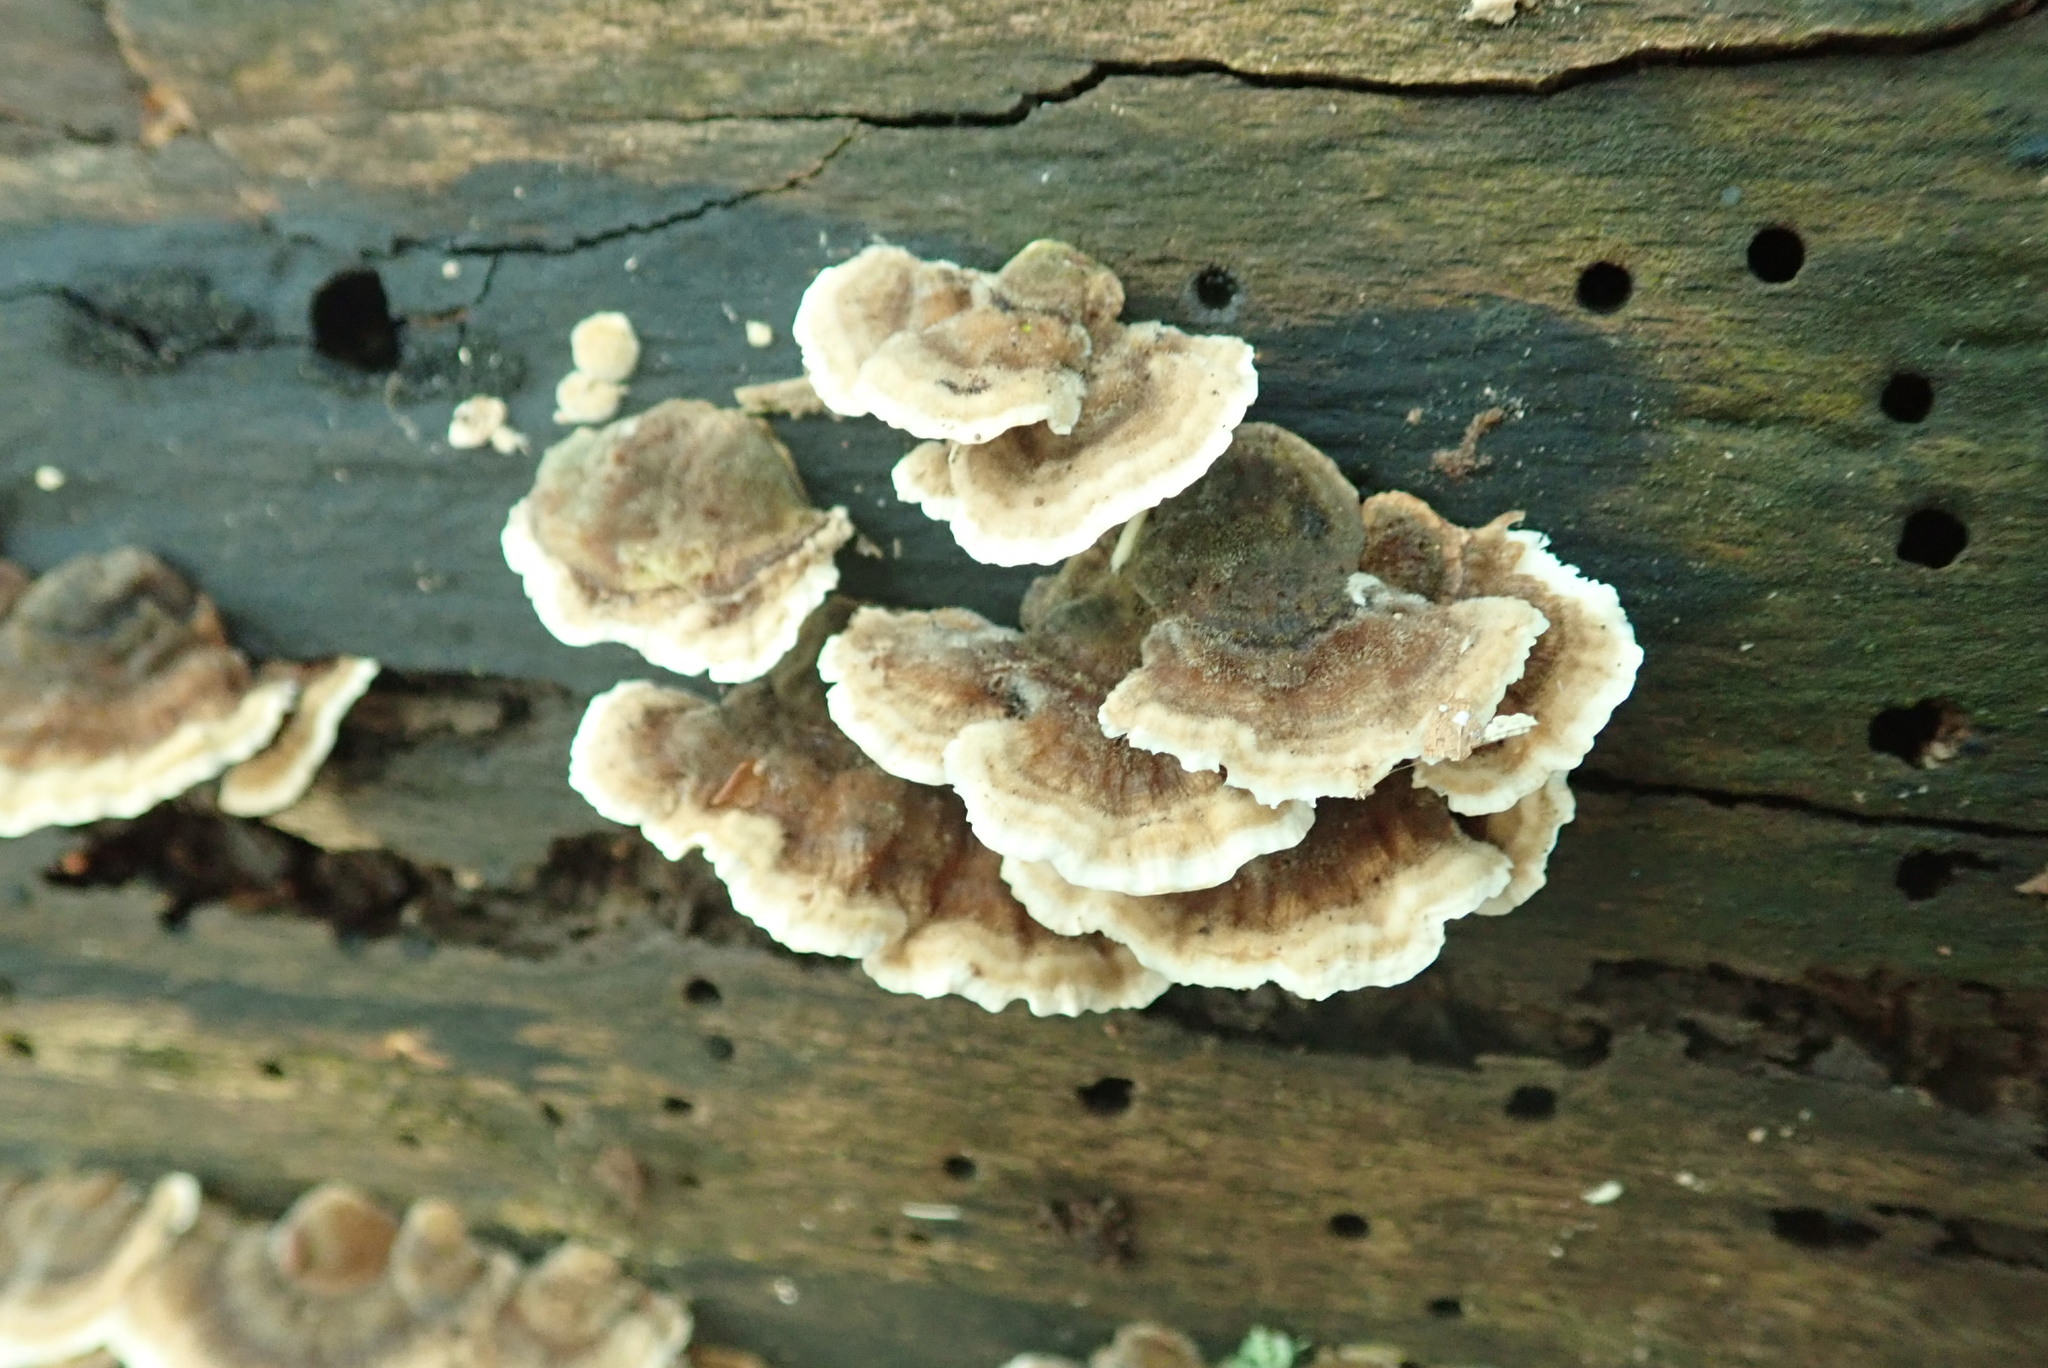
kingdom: Fungi
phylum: Basidiomycota
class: Agaricomycetes
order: Polyporales
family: Polyporaceae
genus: Trametes
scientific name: Trametes versicolor
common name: Turkeytail
